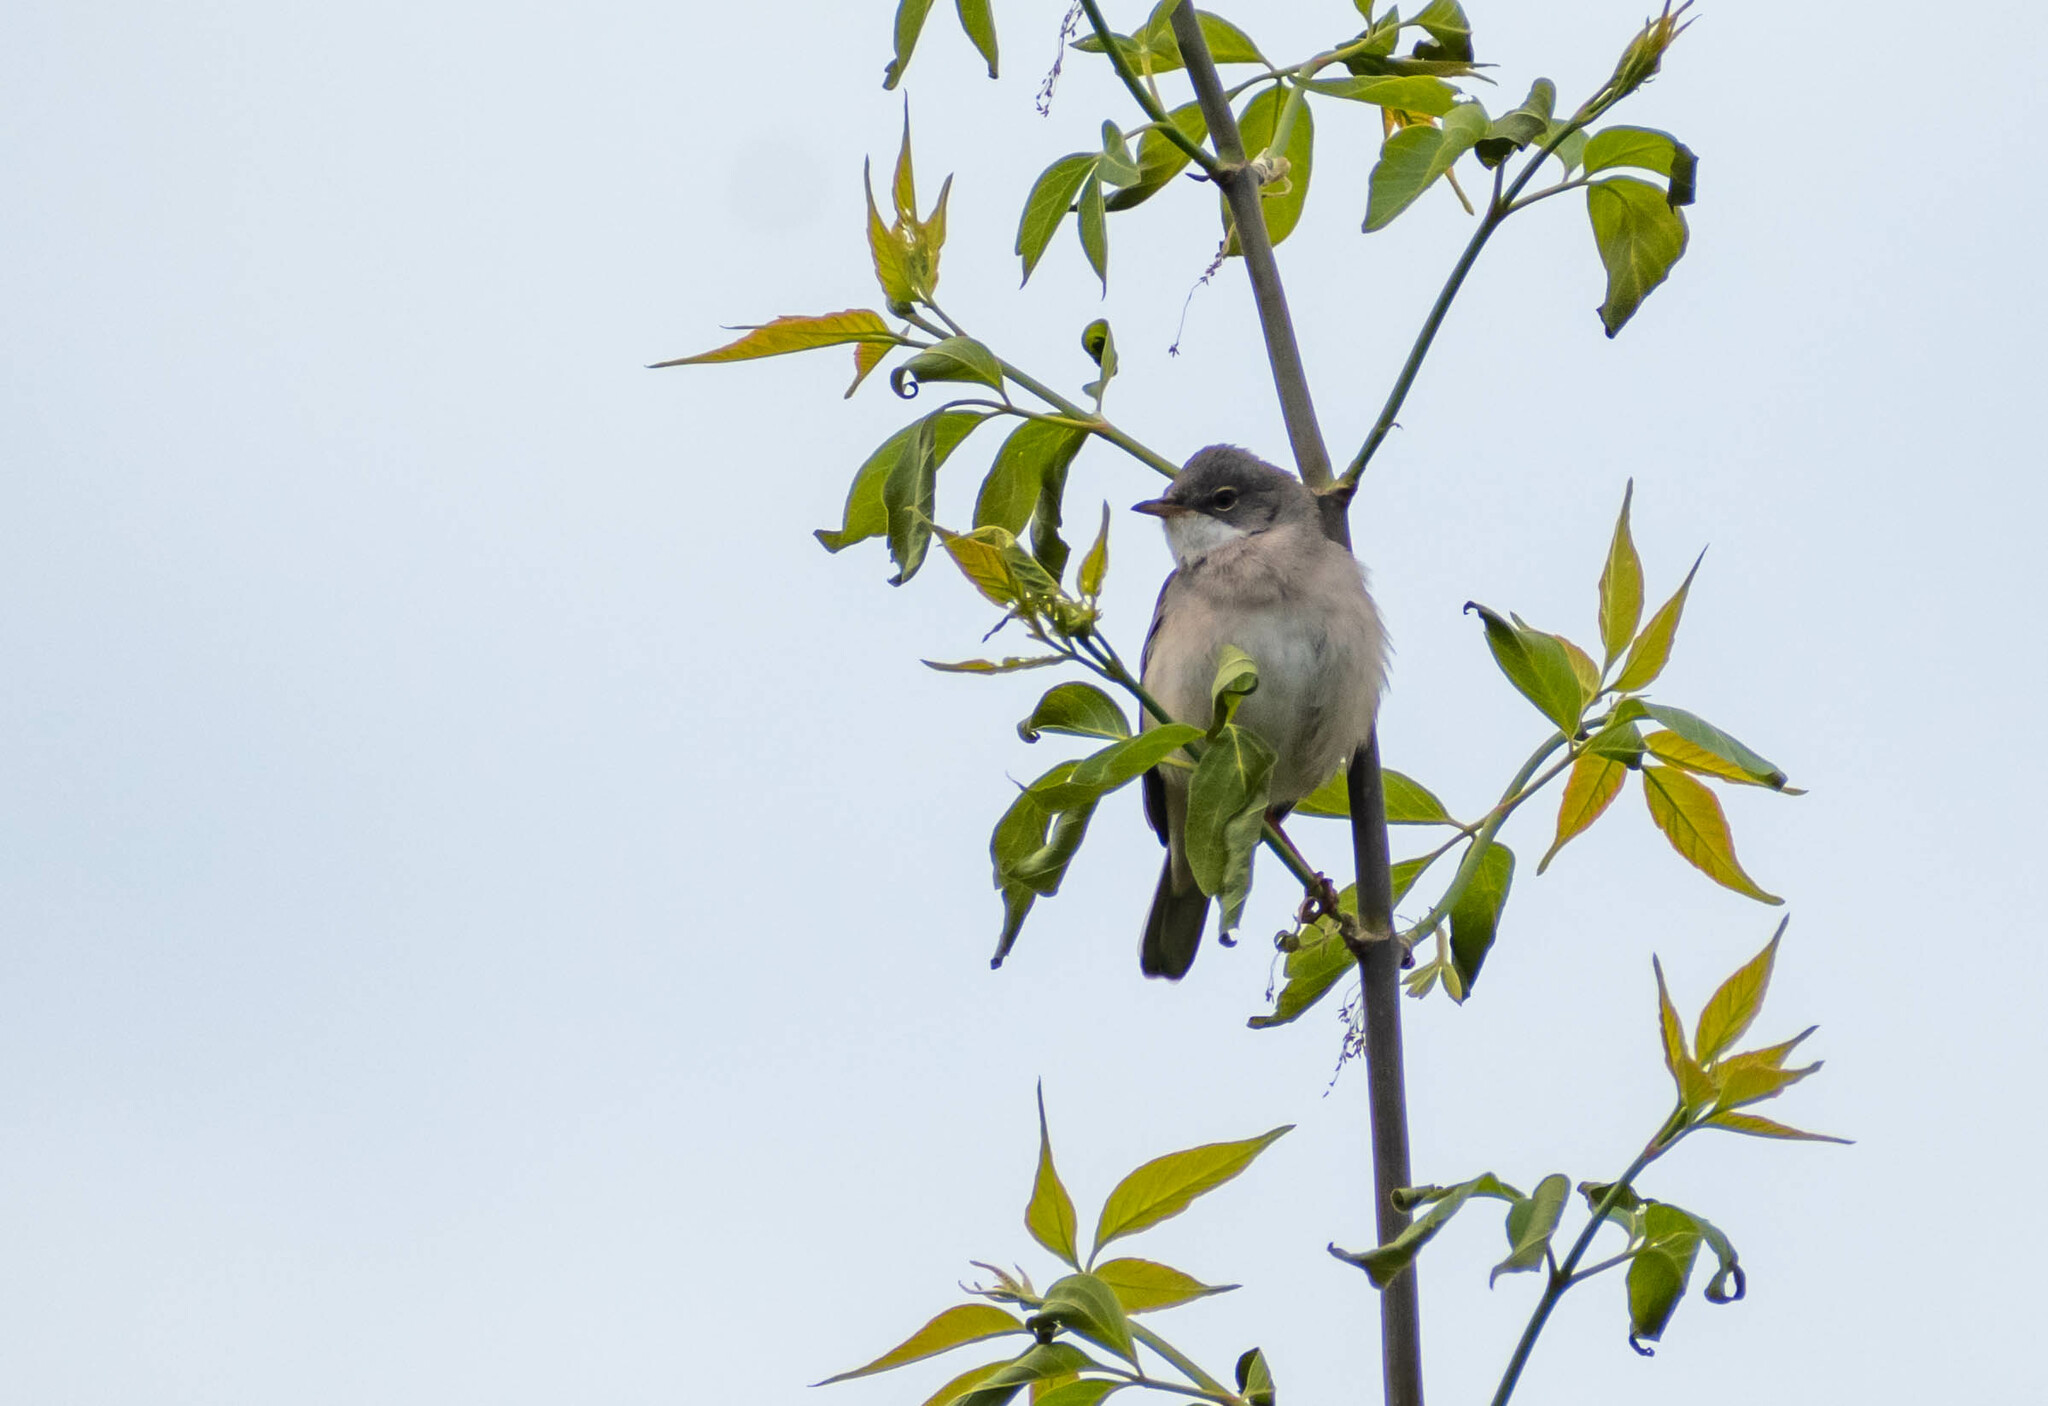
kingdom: Animalia
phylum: Chordata
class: Aves
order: Passeriformes
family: Sylviidae
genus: Sylvia
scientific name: Sylvia communis
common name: Common whitethroat
